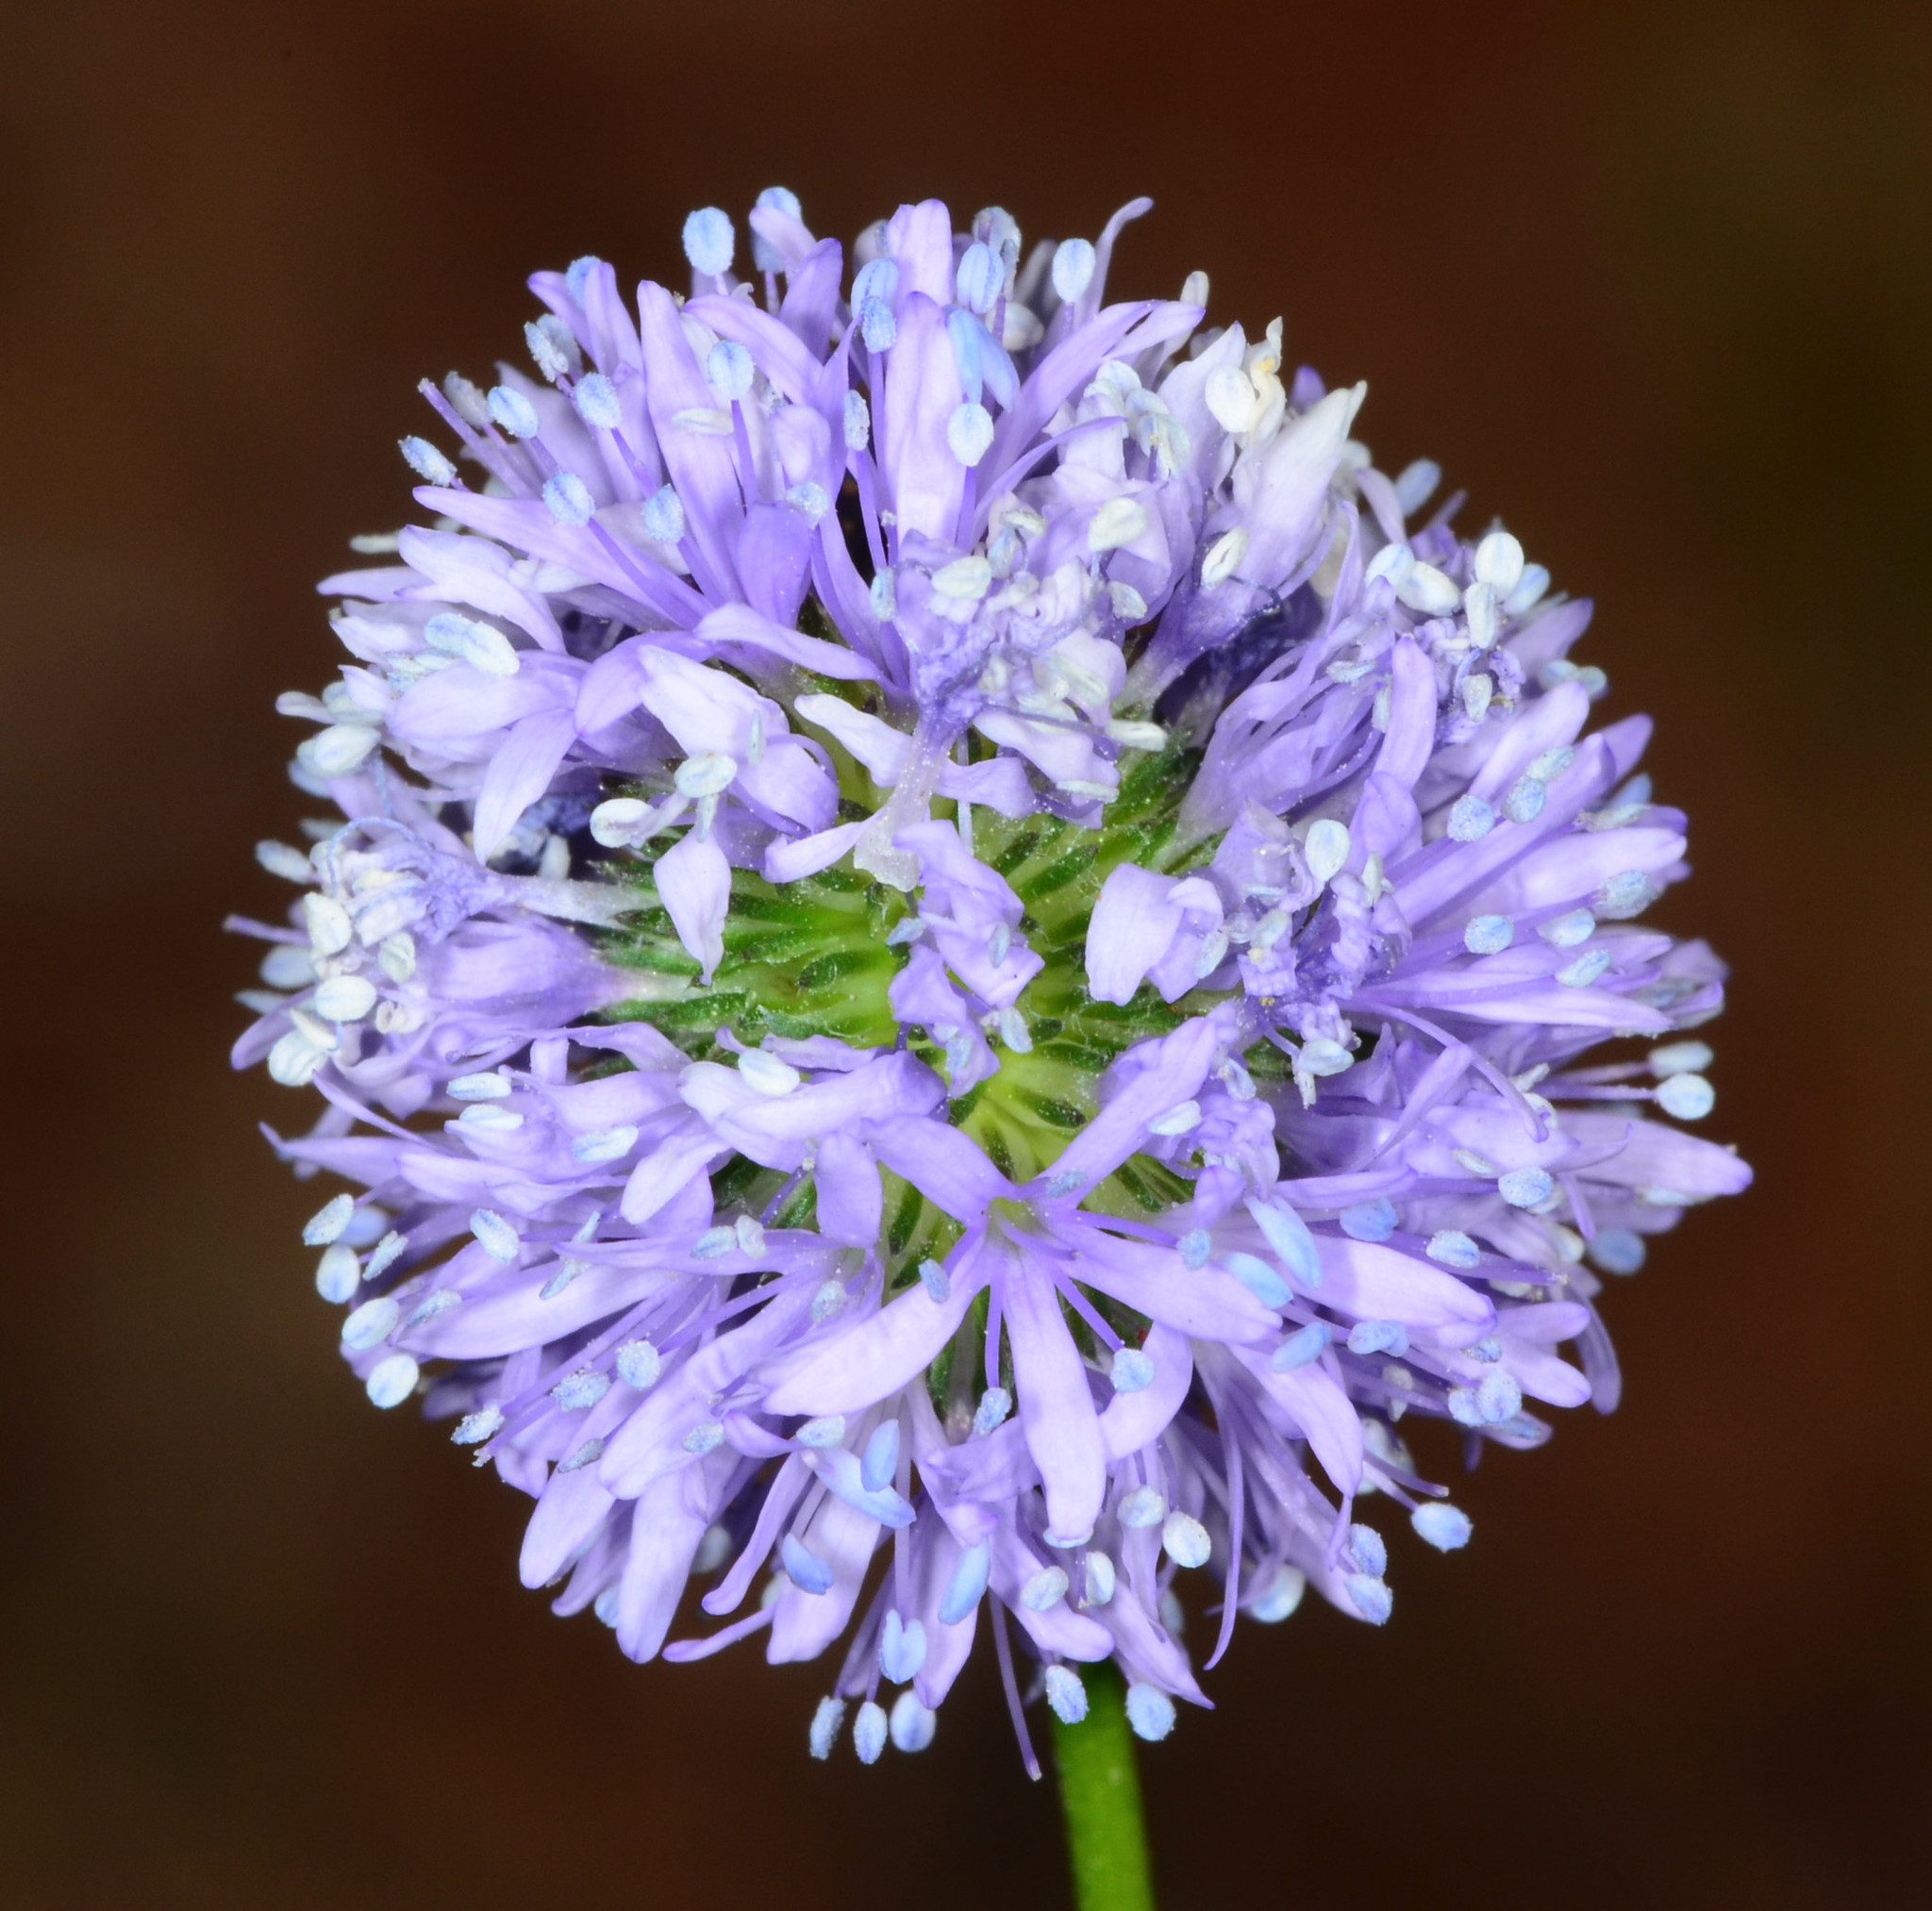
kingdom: Plantae
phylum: Tracheophyta
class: Magnoliopsida
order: Ericales
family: Polemoniaceae
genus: Gilia
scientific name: Gilia capitata
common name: Bluehead gilia
